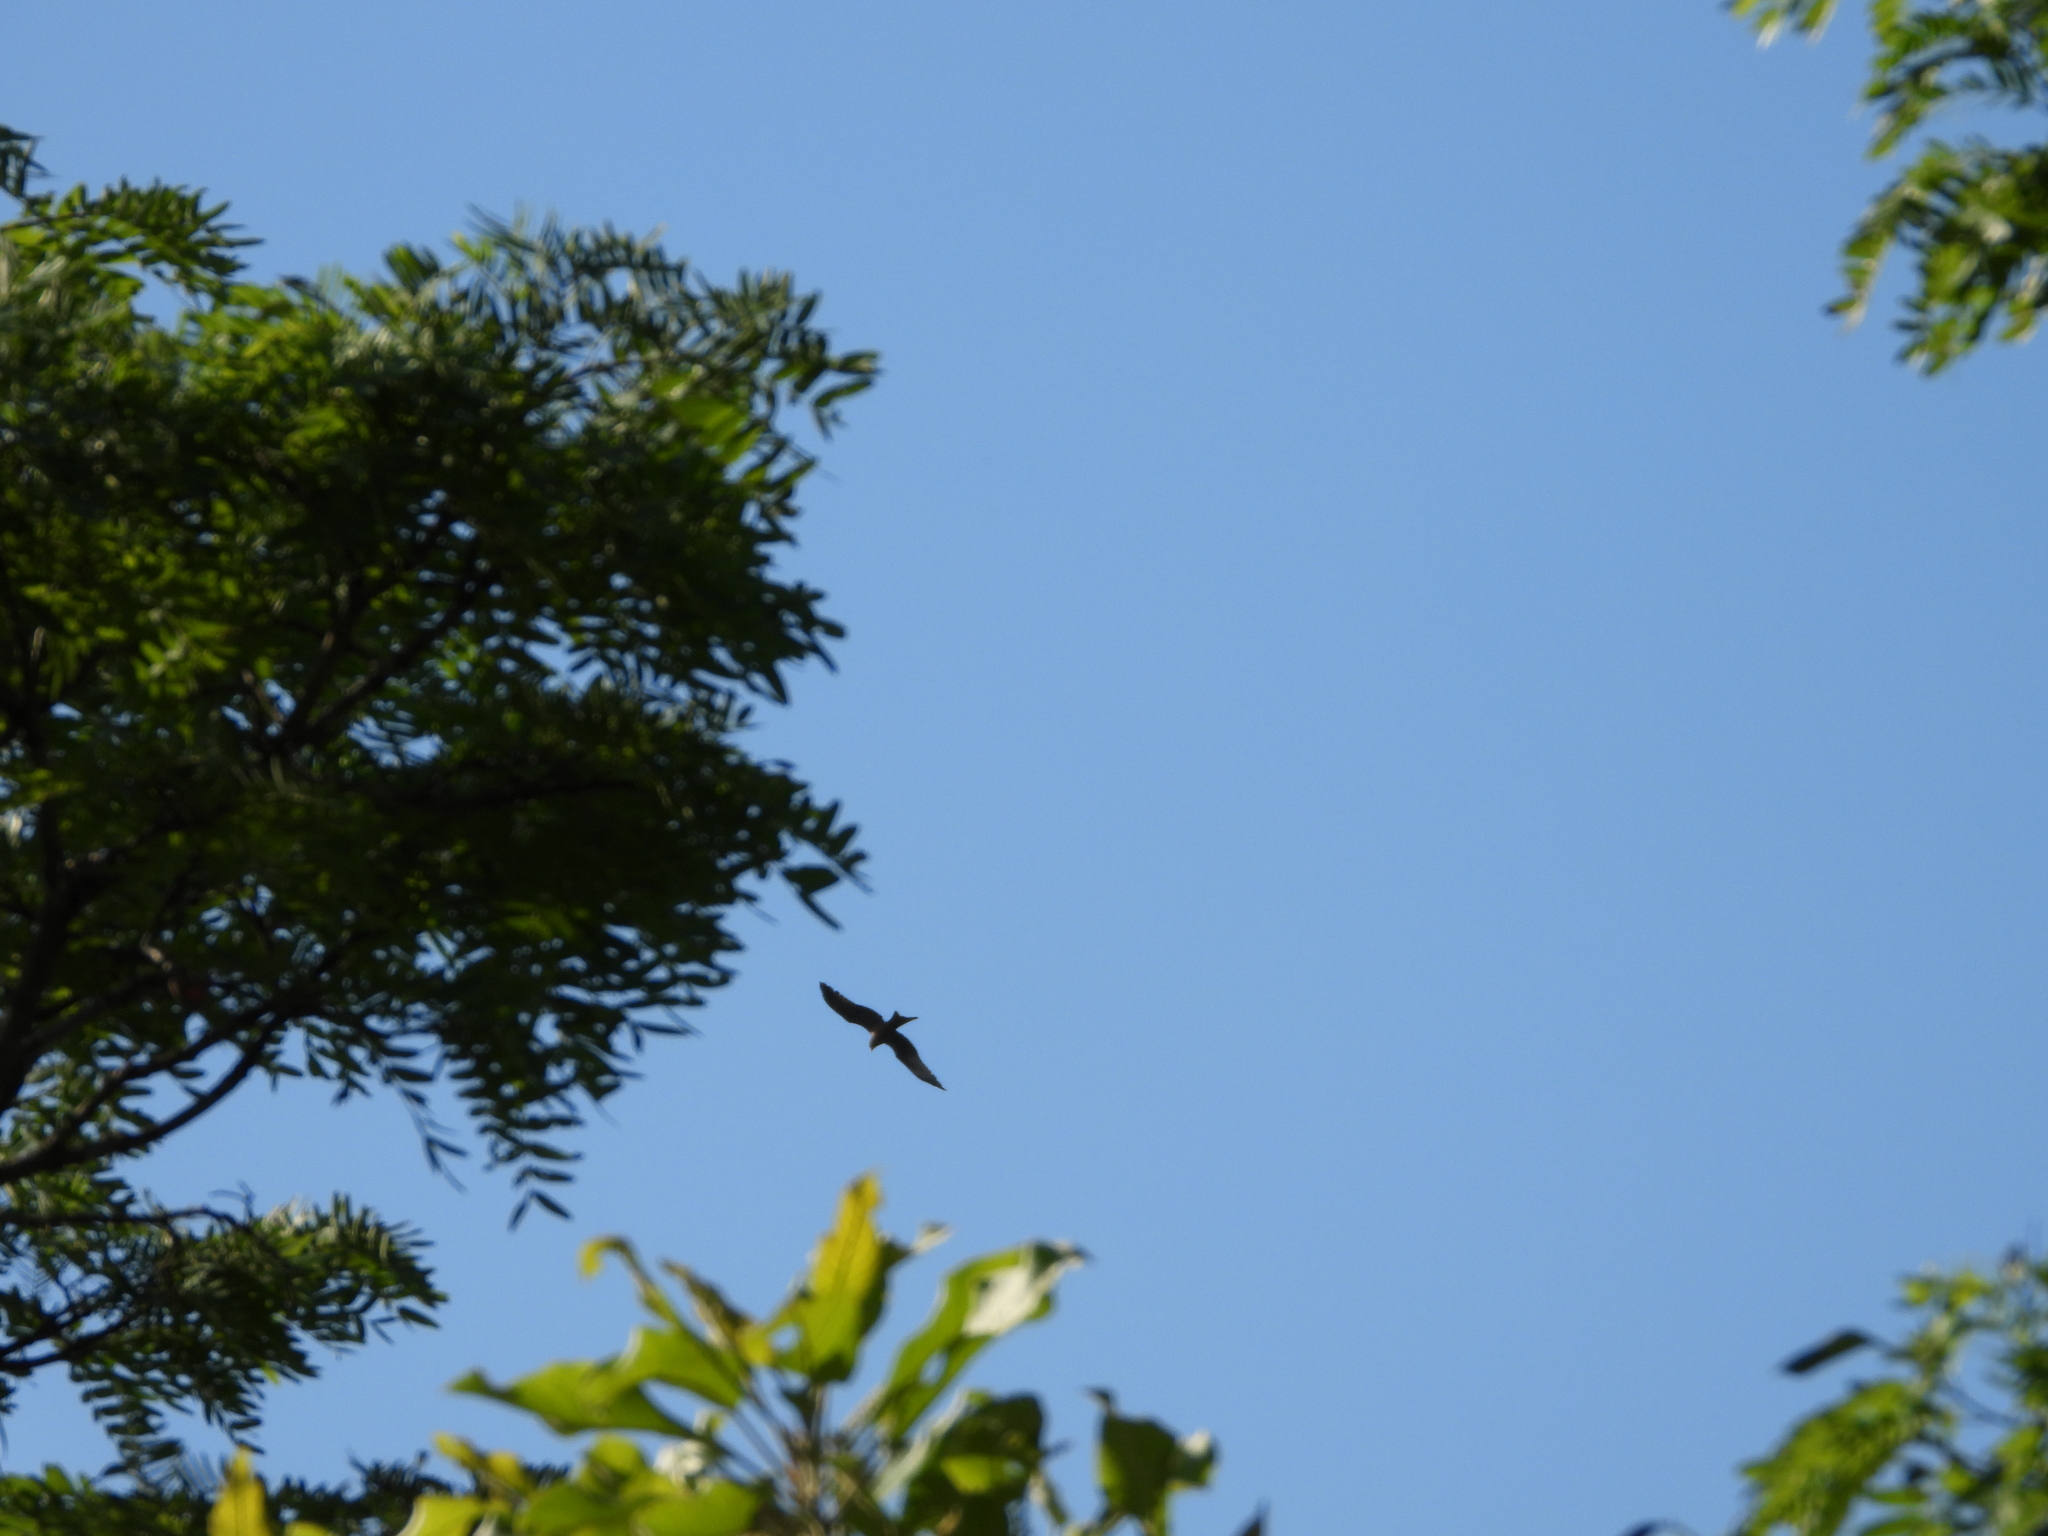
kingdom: Animalia
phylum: Chordata
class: Aves
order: Accipitriformes
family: Accipitridae
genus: Milvus
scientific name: Milvus migrans
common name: Black kite
